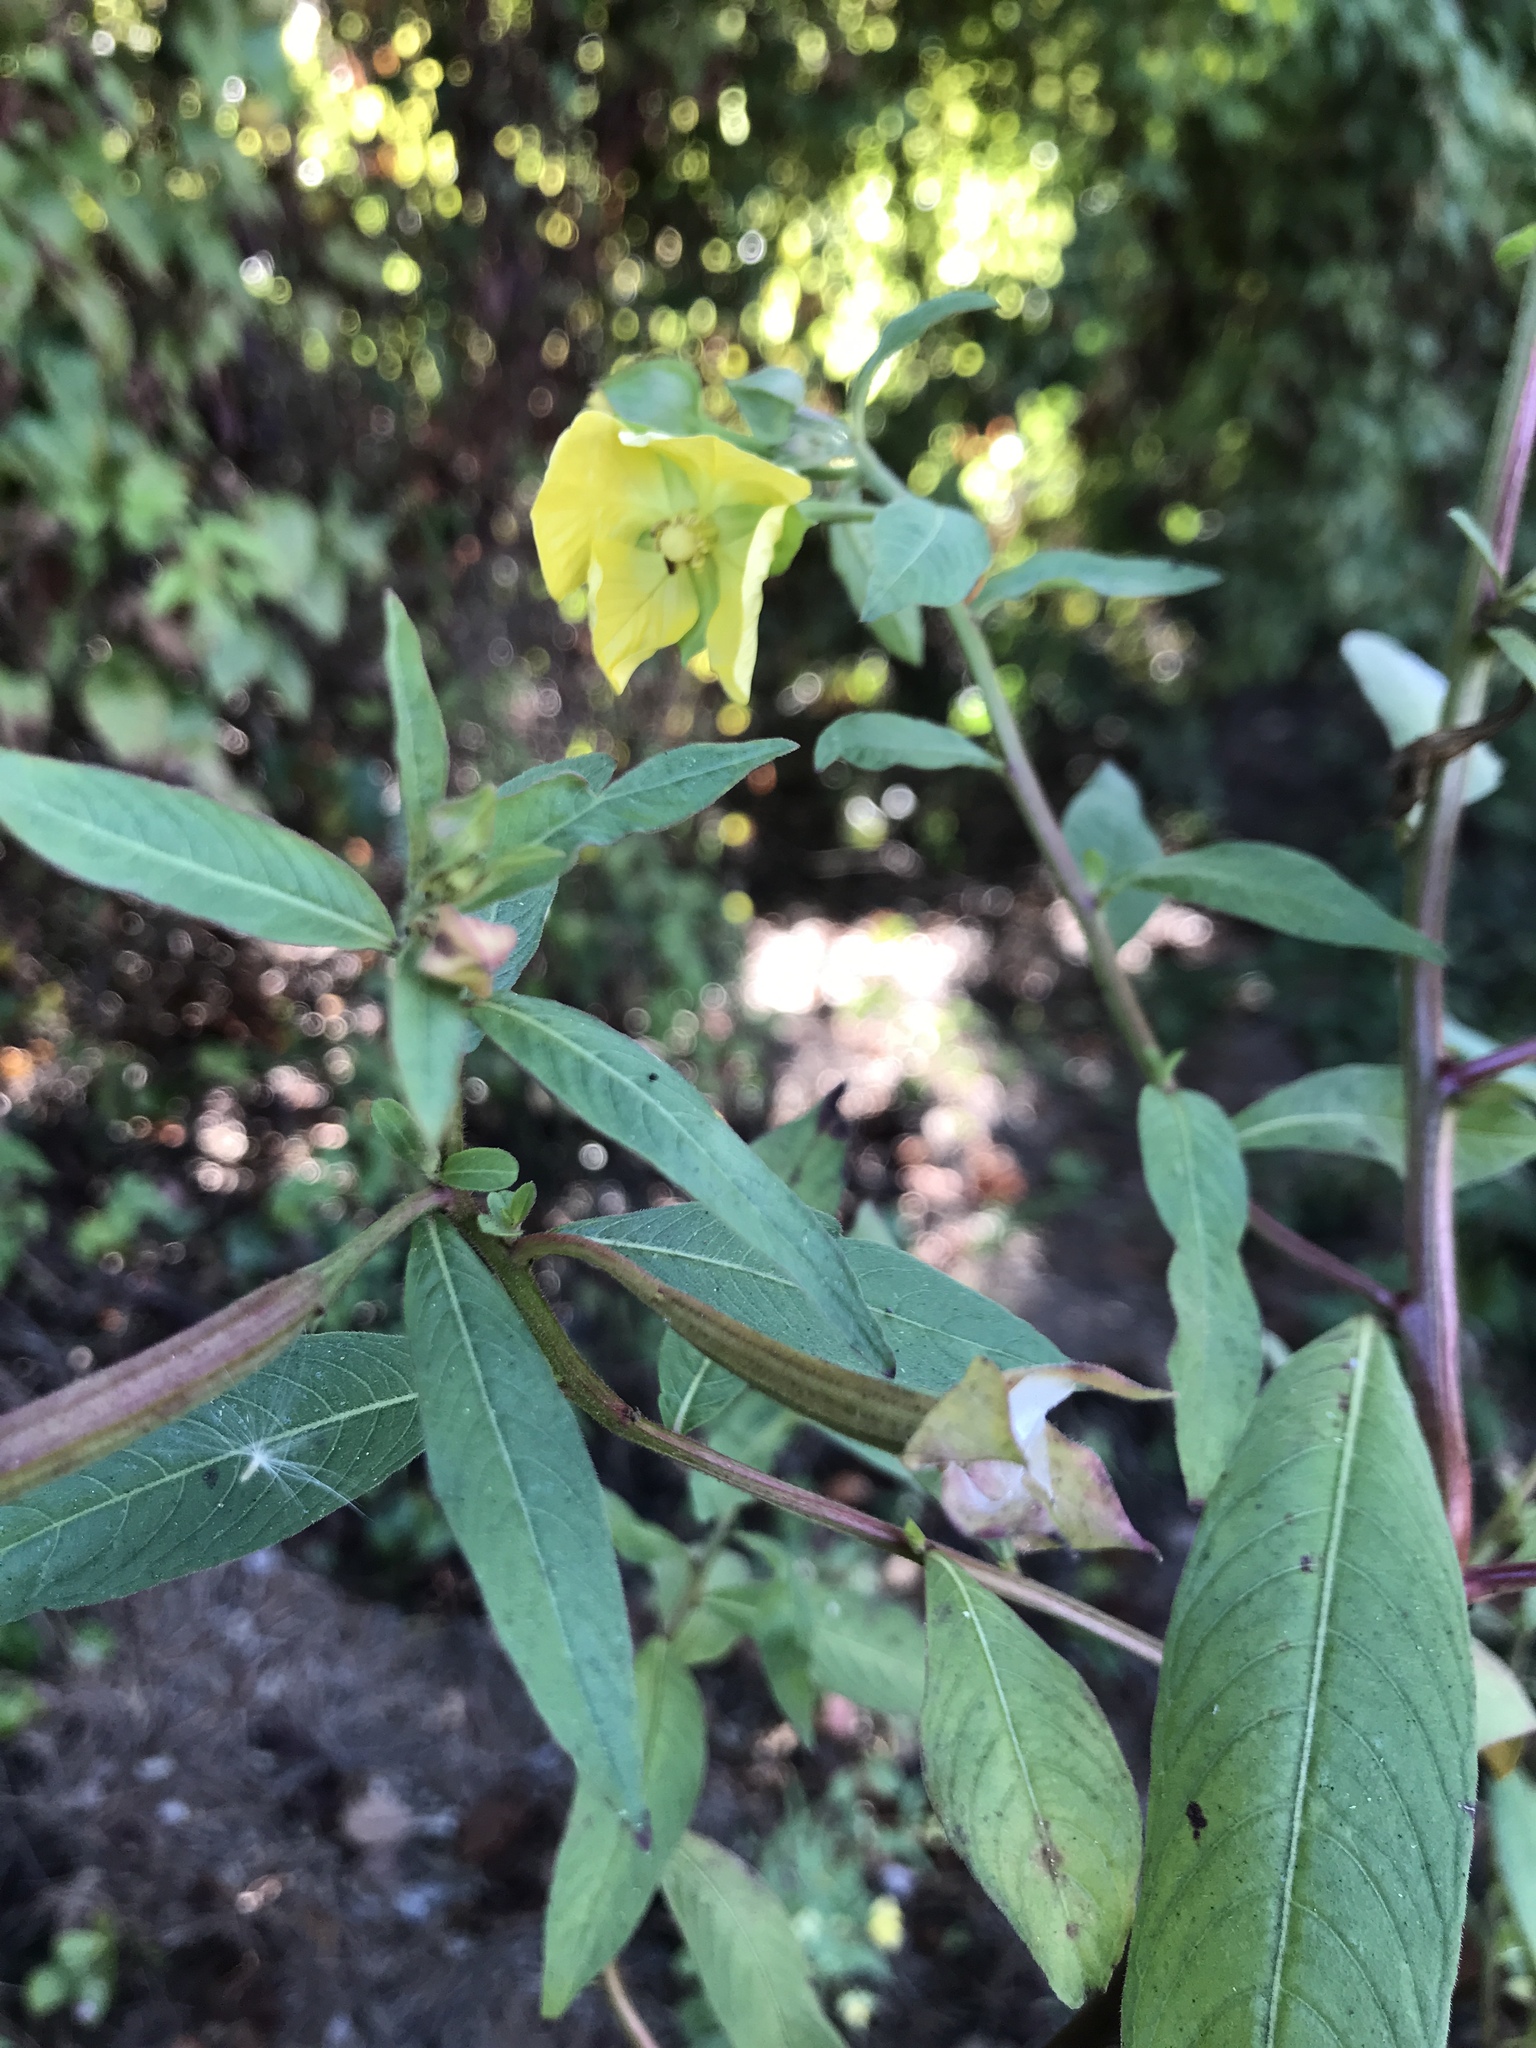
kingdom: Plantae
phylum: Tracheophyta
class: Magnoliopsida
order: Myrtales
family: Onagraceae
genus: Ludwigia
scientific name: Ludwigia octovalvis
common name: Water-primrose
